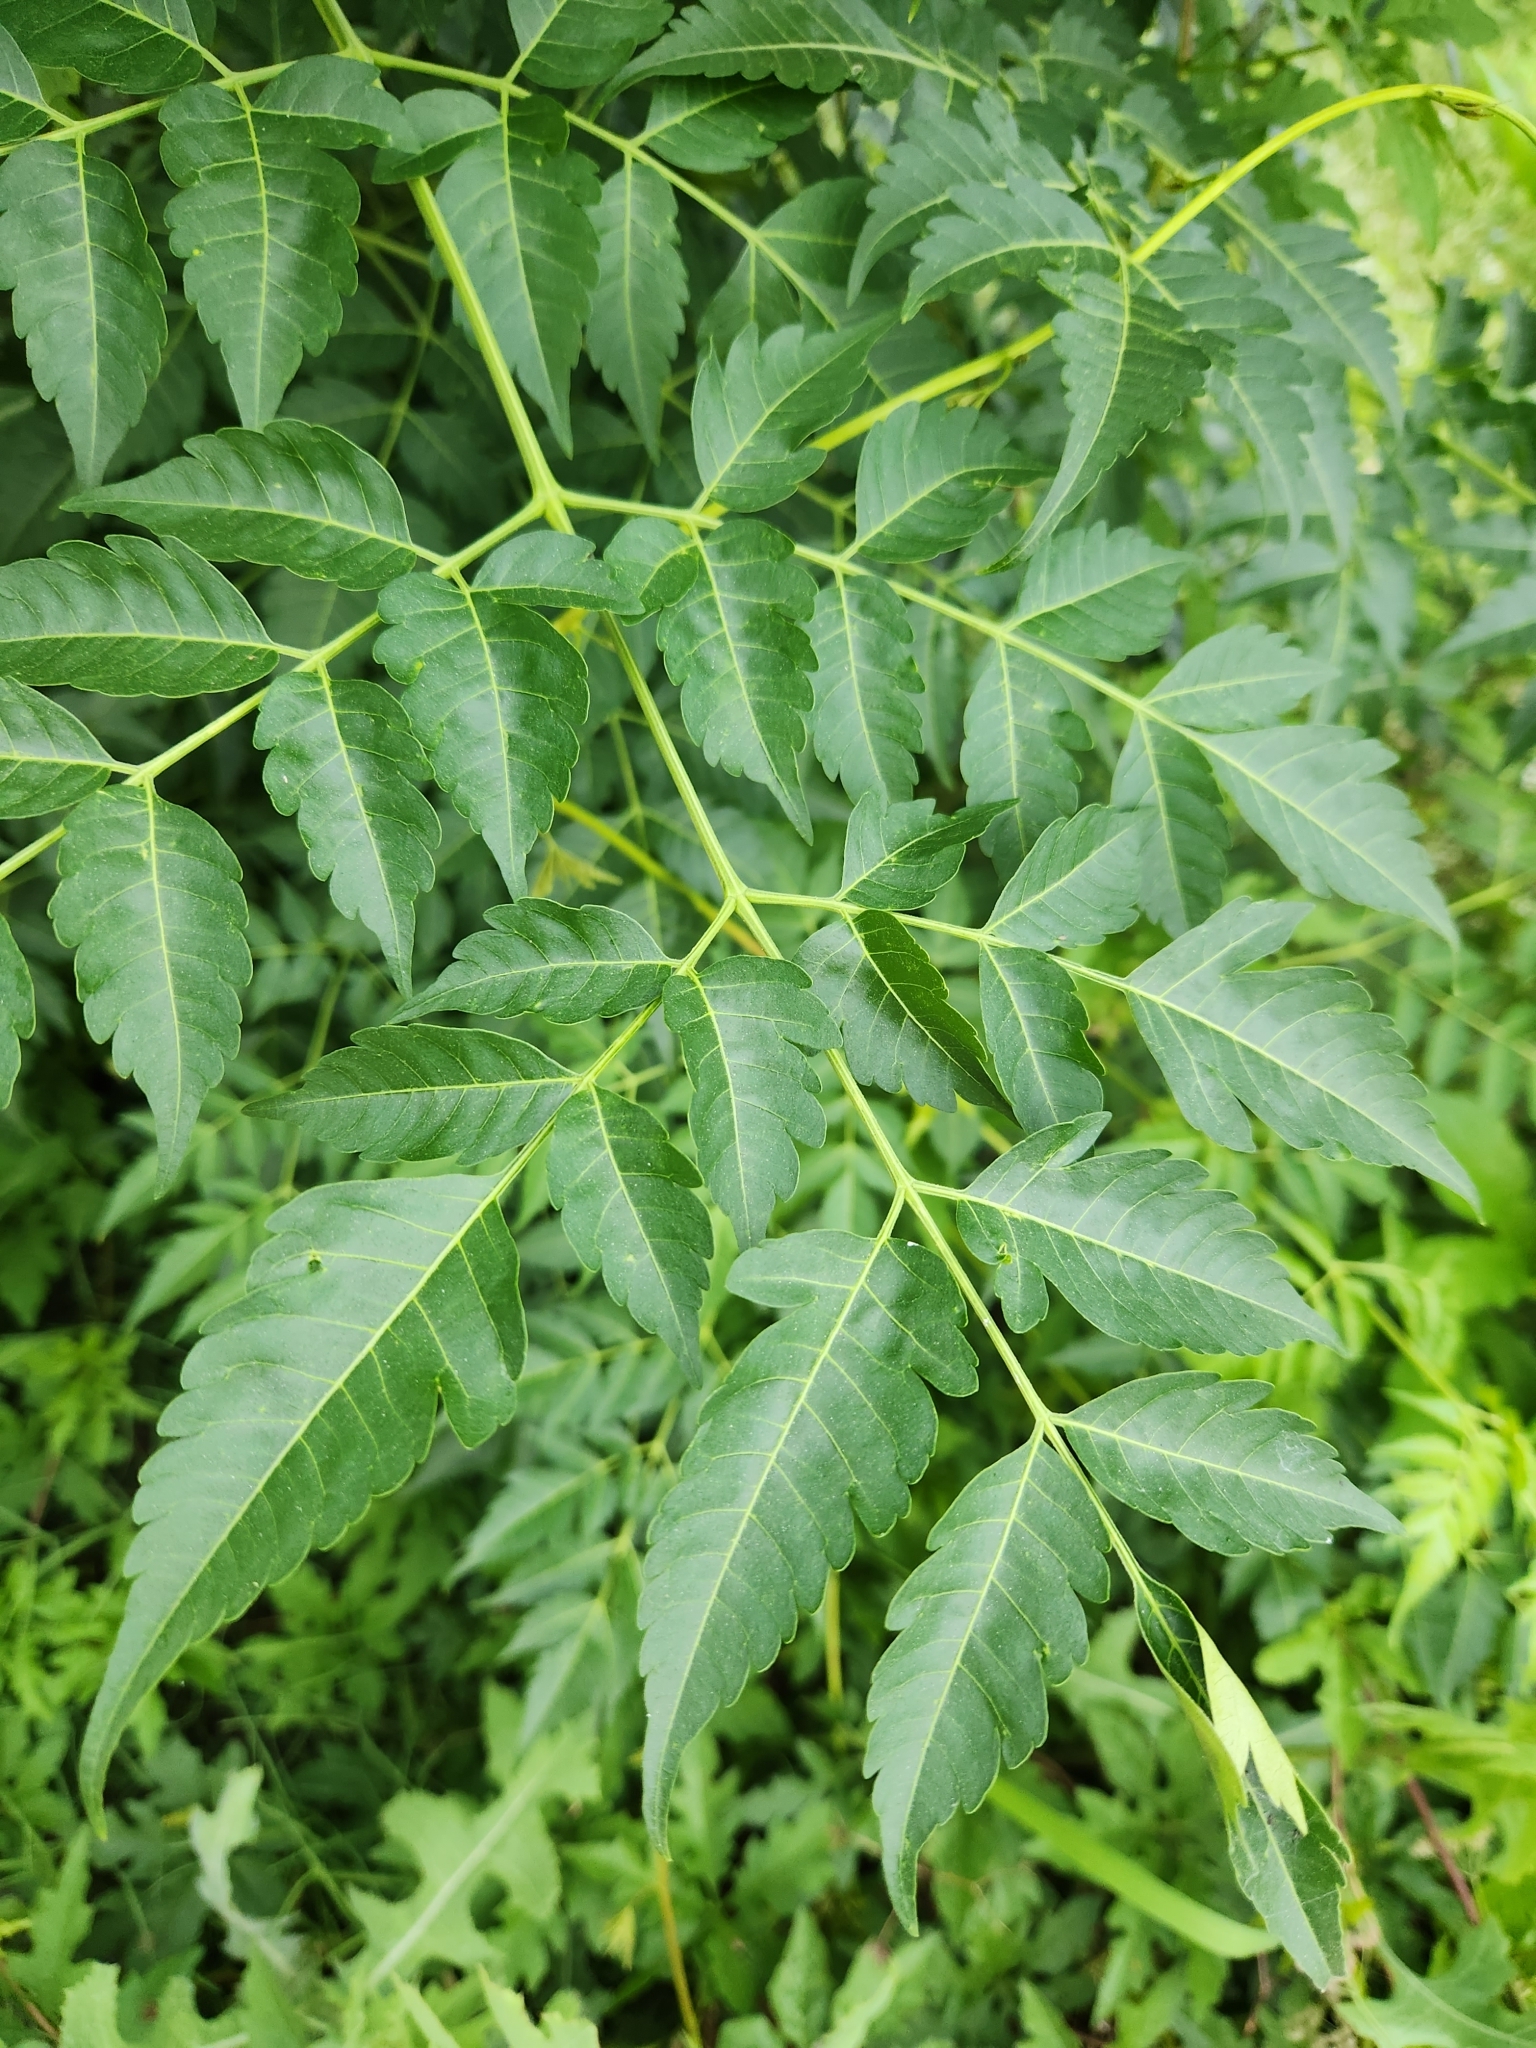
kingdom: Plantae
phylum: Tracheophyta
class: Magnoliopsida
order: Sapindales
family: Meliaceae
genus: Melia
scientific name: Melia azedarach
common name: Chinaberrytree
